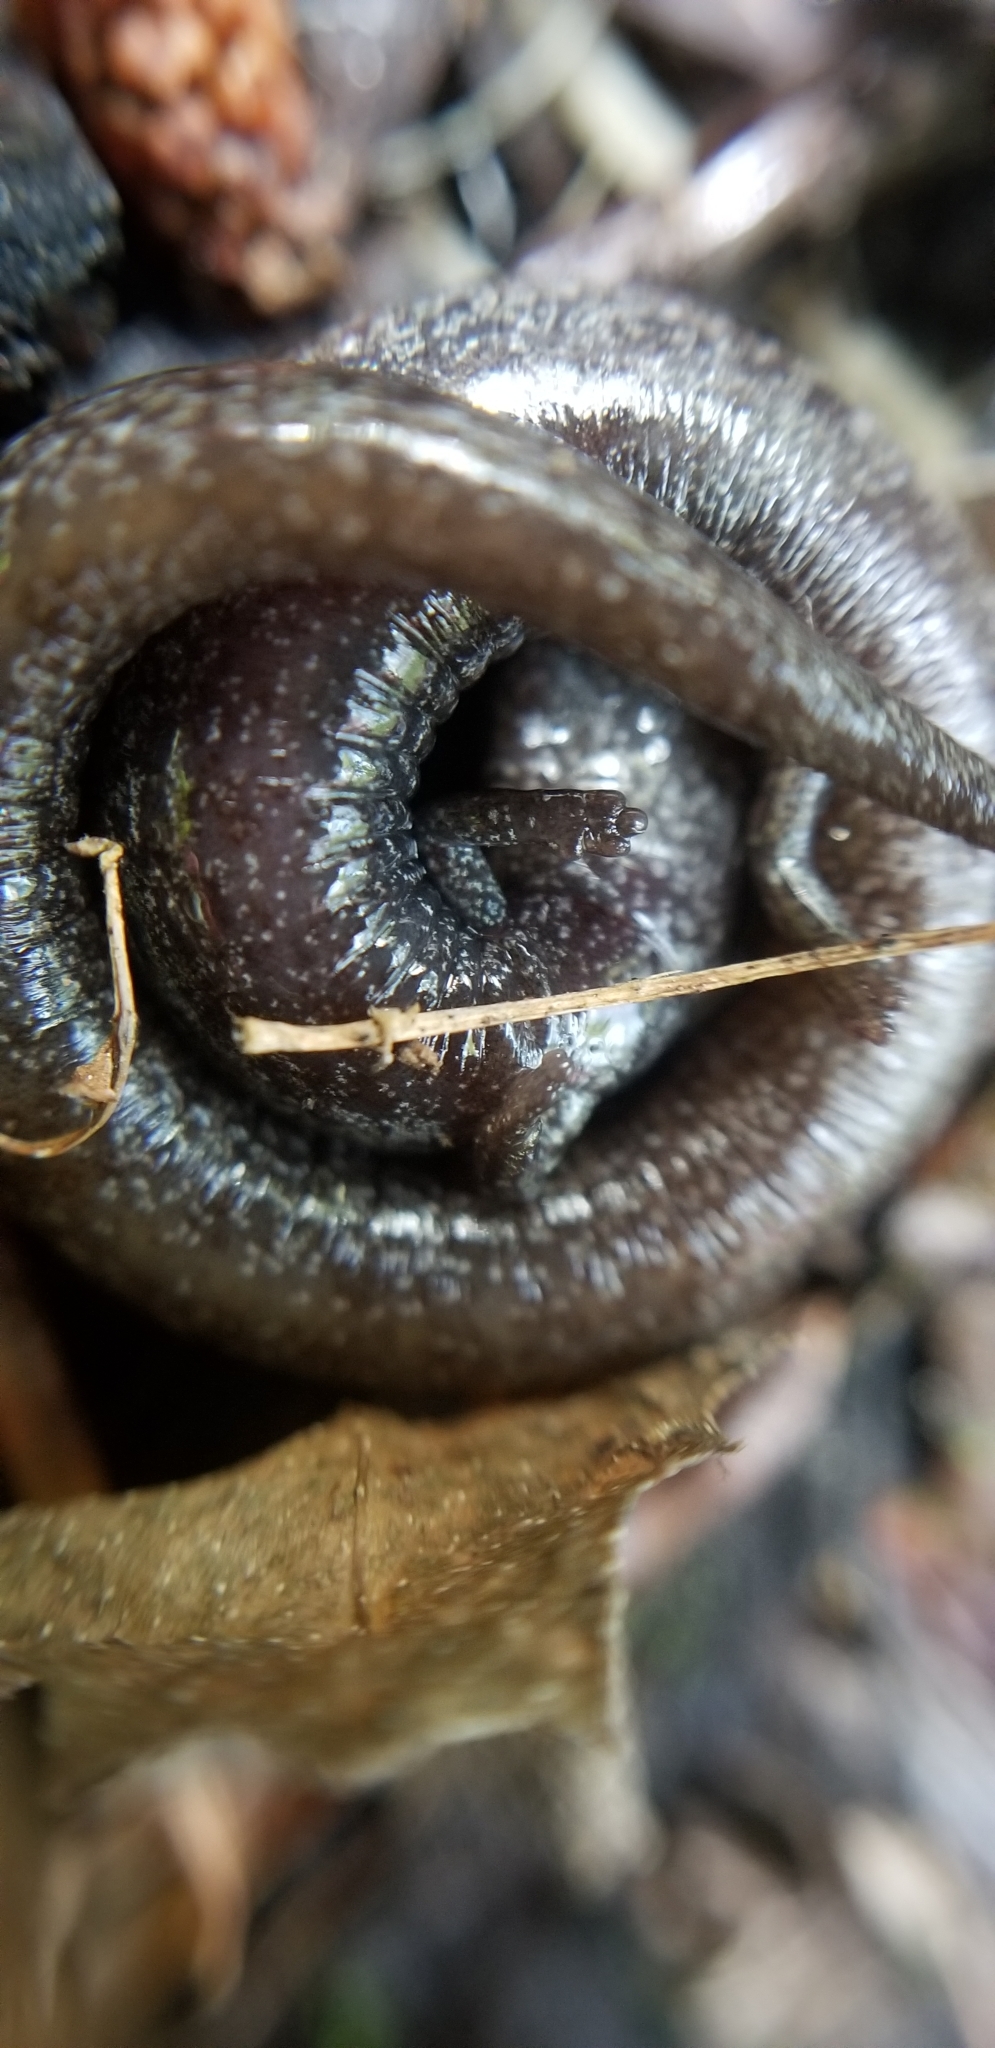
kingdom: Animalia
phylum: Chordata
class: Amphibia
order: Caudata
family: Plethodontidae
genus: Batrachoseps
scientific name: Batrachoseps attenuatus
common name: California slender salamander
